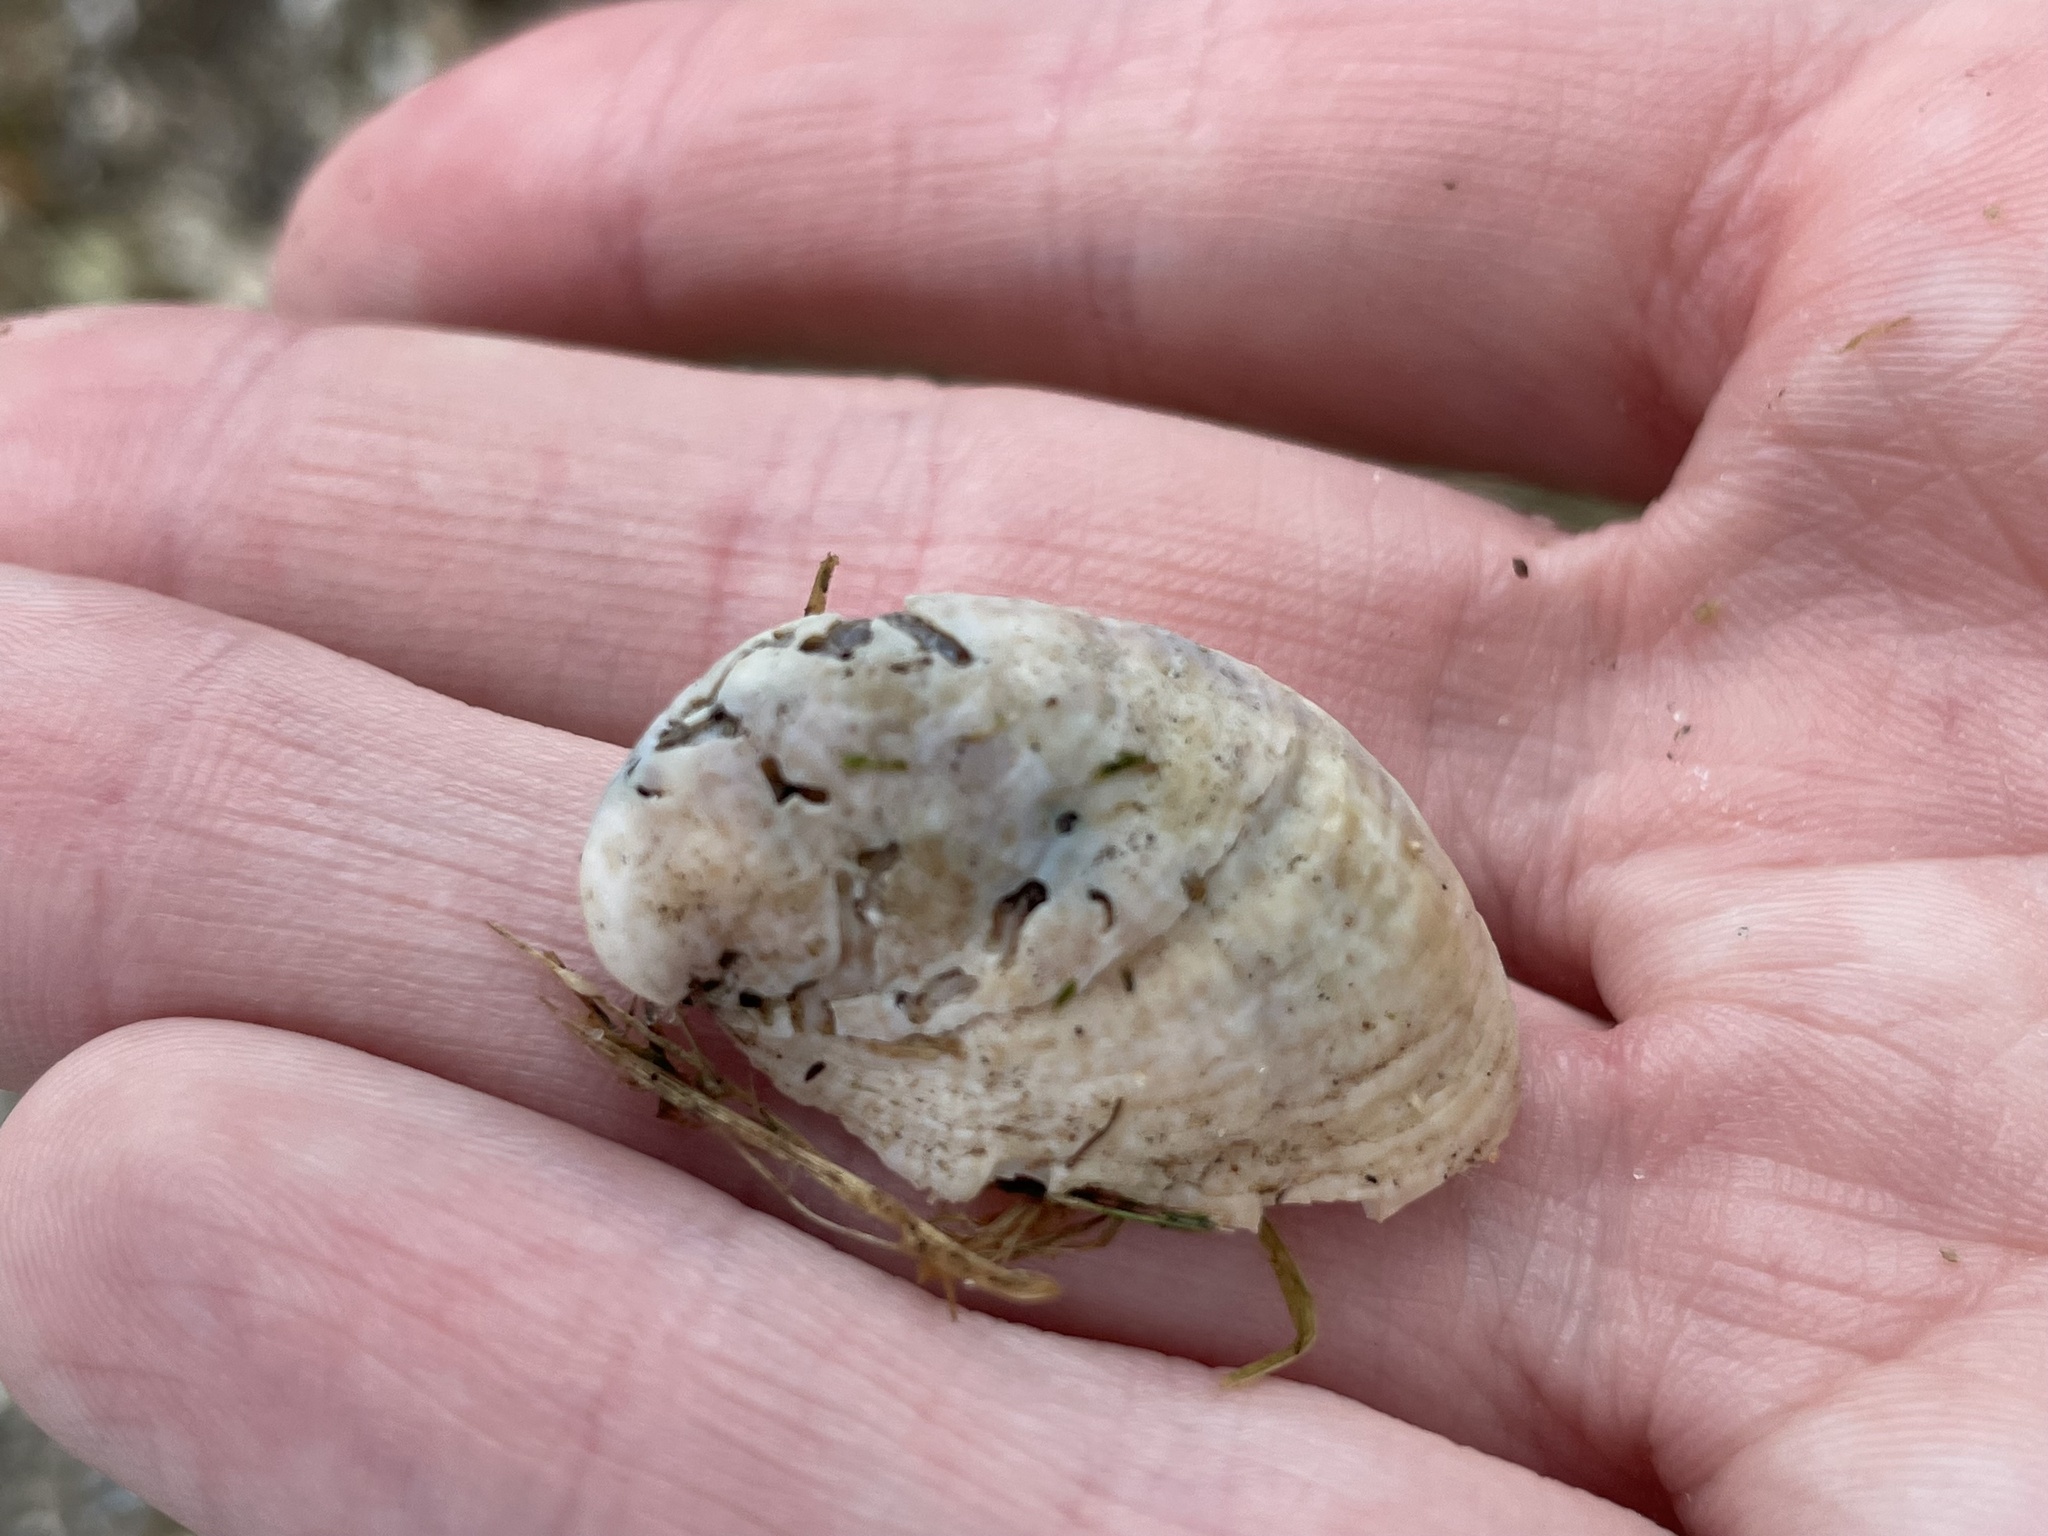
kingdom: Animalia
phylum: Mollusca
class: Gastropoda
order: Littorinimorpha
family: Calyptraeidae
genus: Crepidula
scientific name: Crepidula fornicata
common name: Slipper limpet
